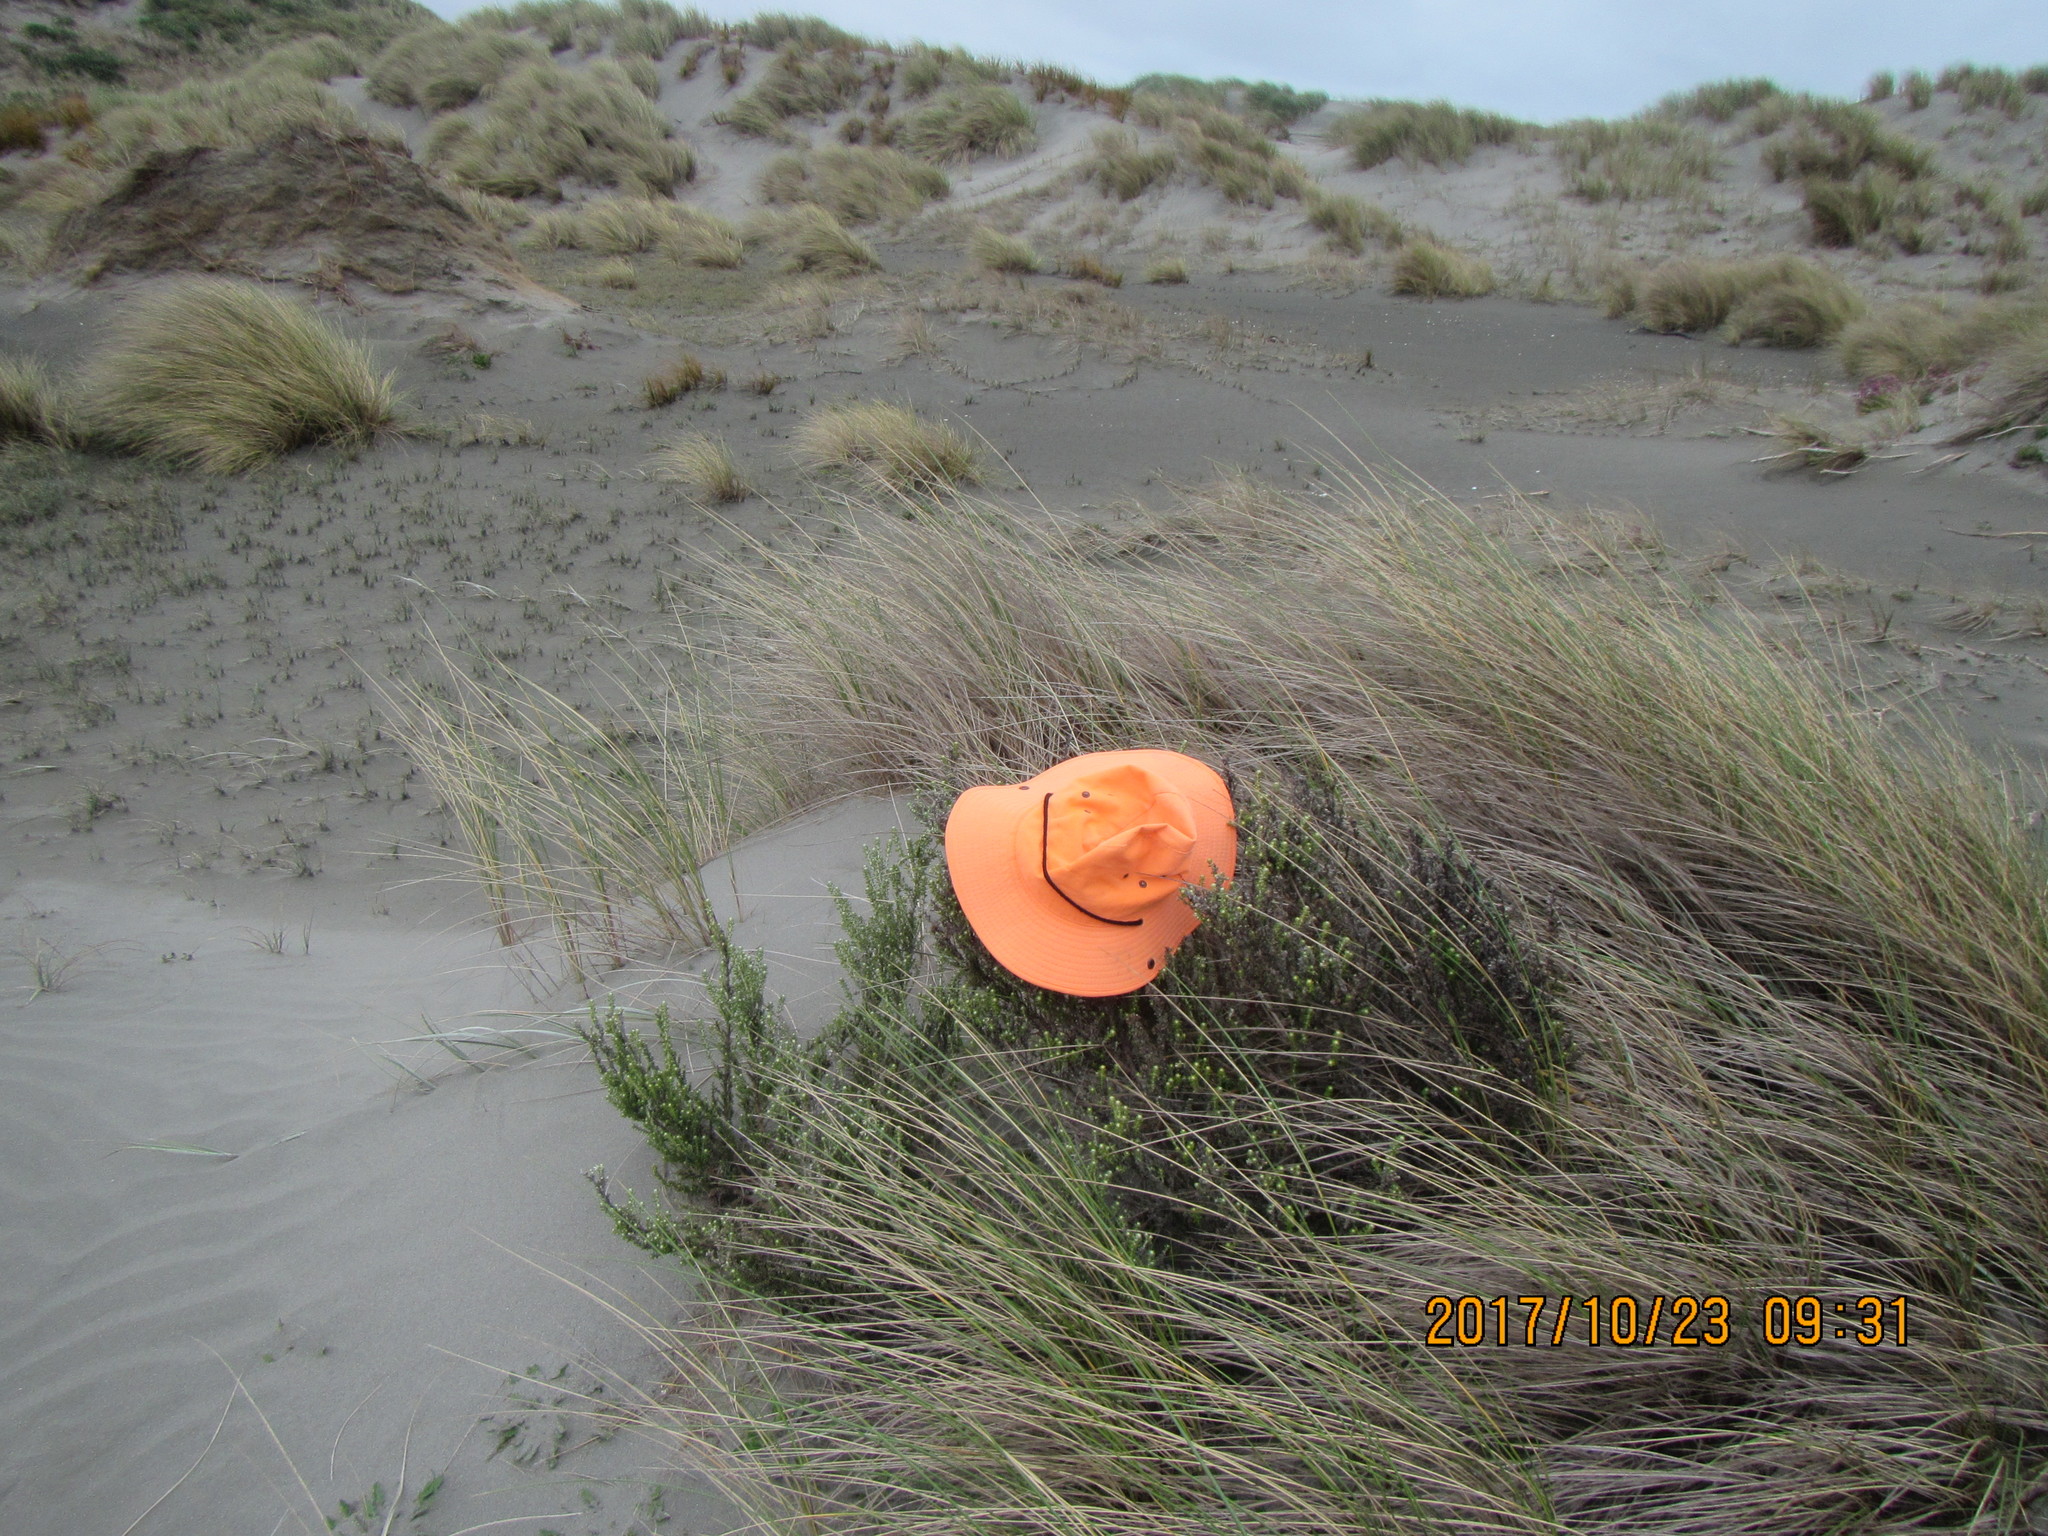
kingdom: Plantae
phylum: Tracheophyta
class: Magnoliopsida
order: Asterales
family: Asteraceae
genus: Ozothamnus
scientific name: Ozothamnus leptophyllus
